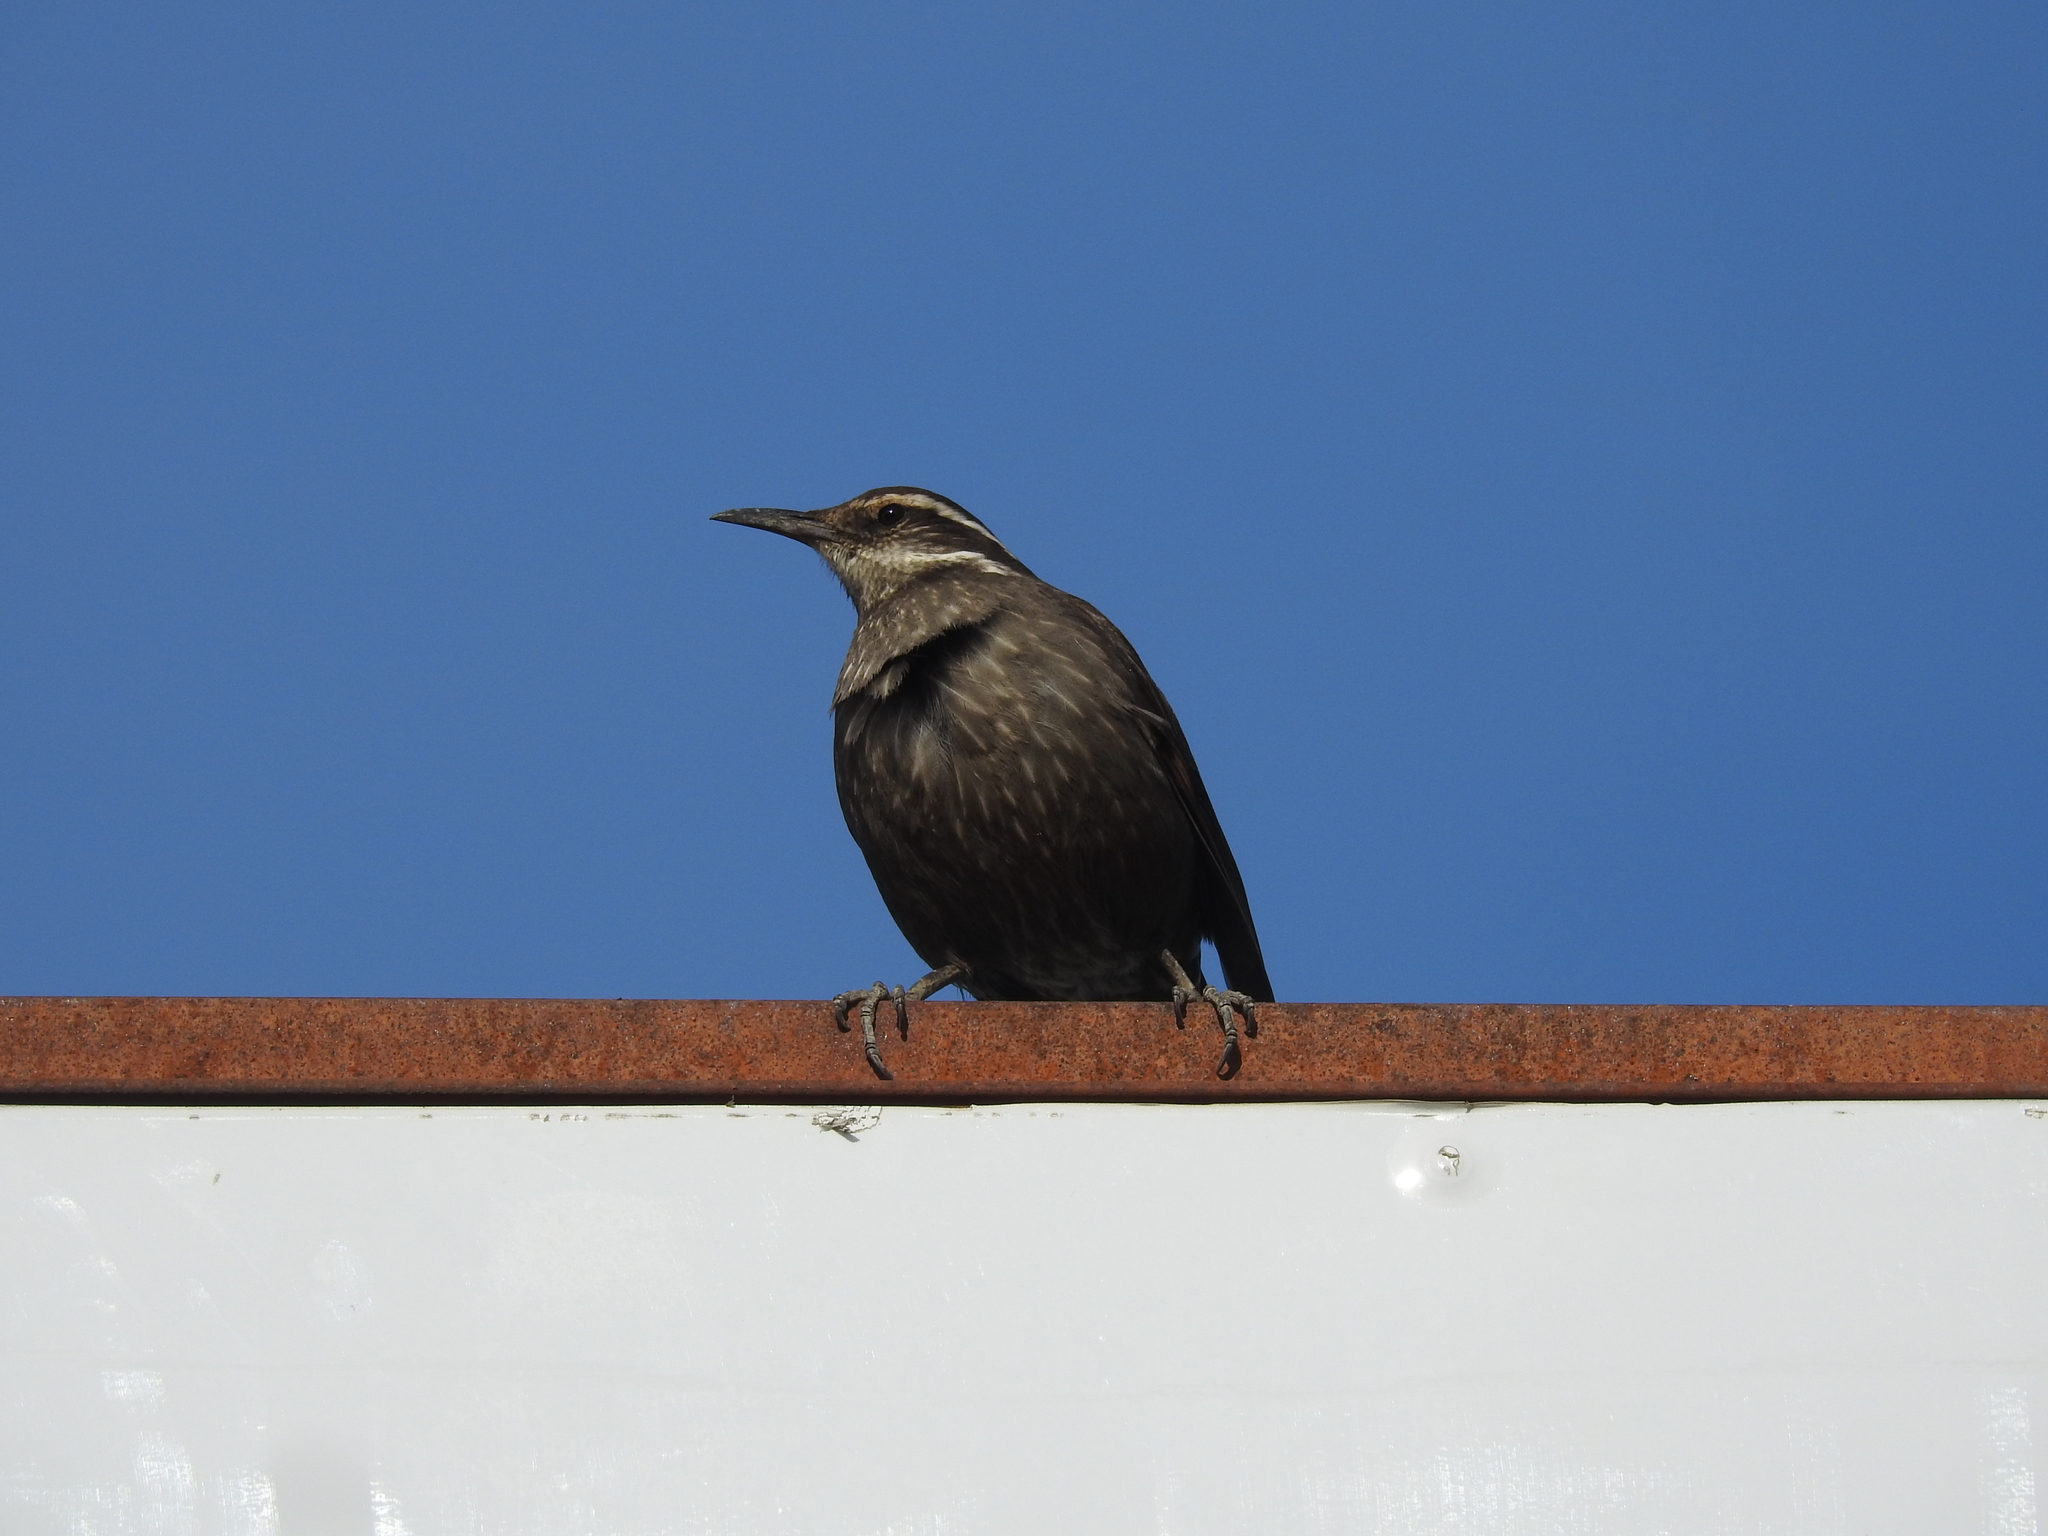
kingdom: Animalia
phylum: Chordata
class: Aves
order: Passeriformes
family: Furnariidae
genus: Cinclodes
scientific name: Cinclodes patagonicus
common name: Dark-bellied cinclodes
